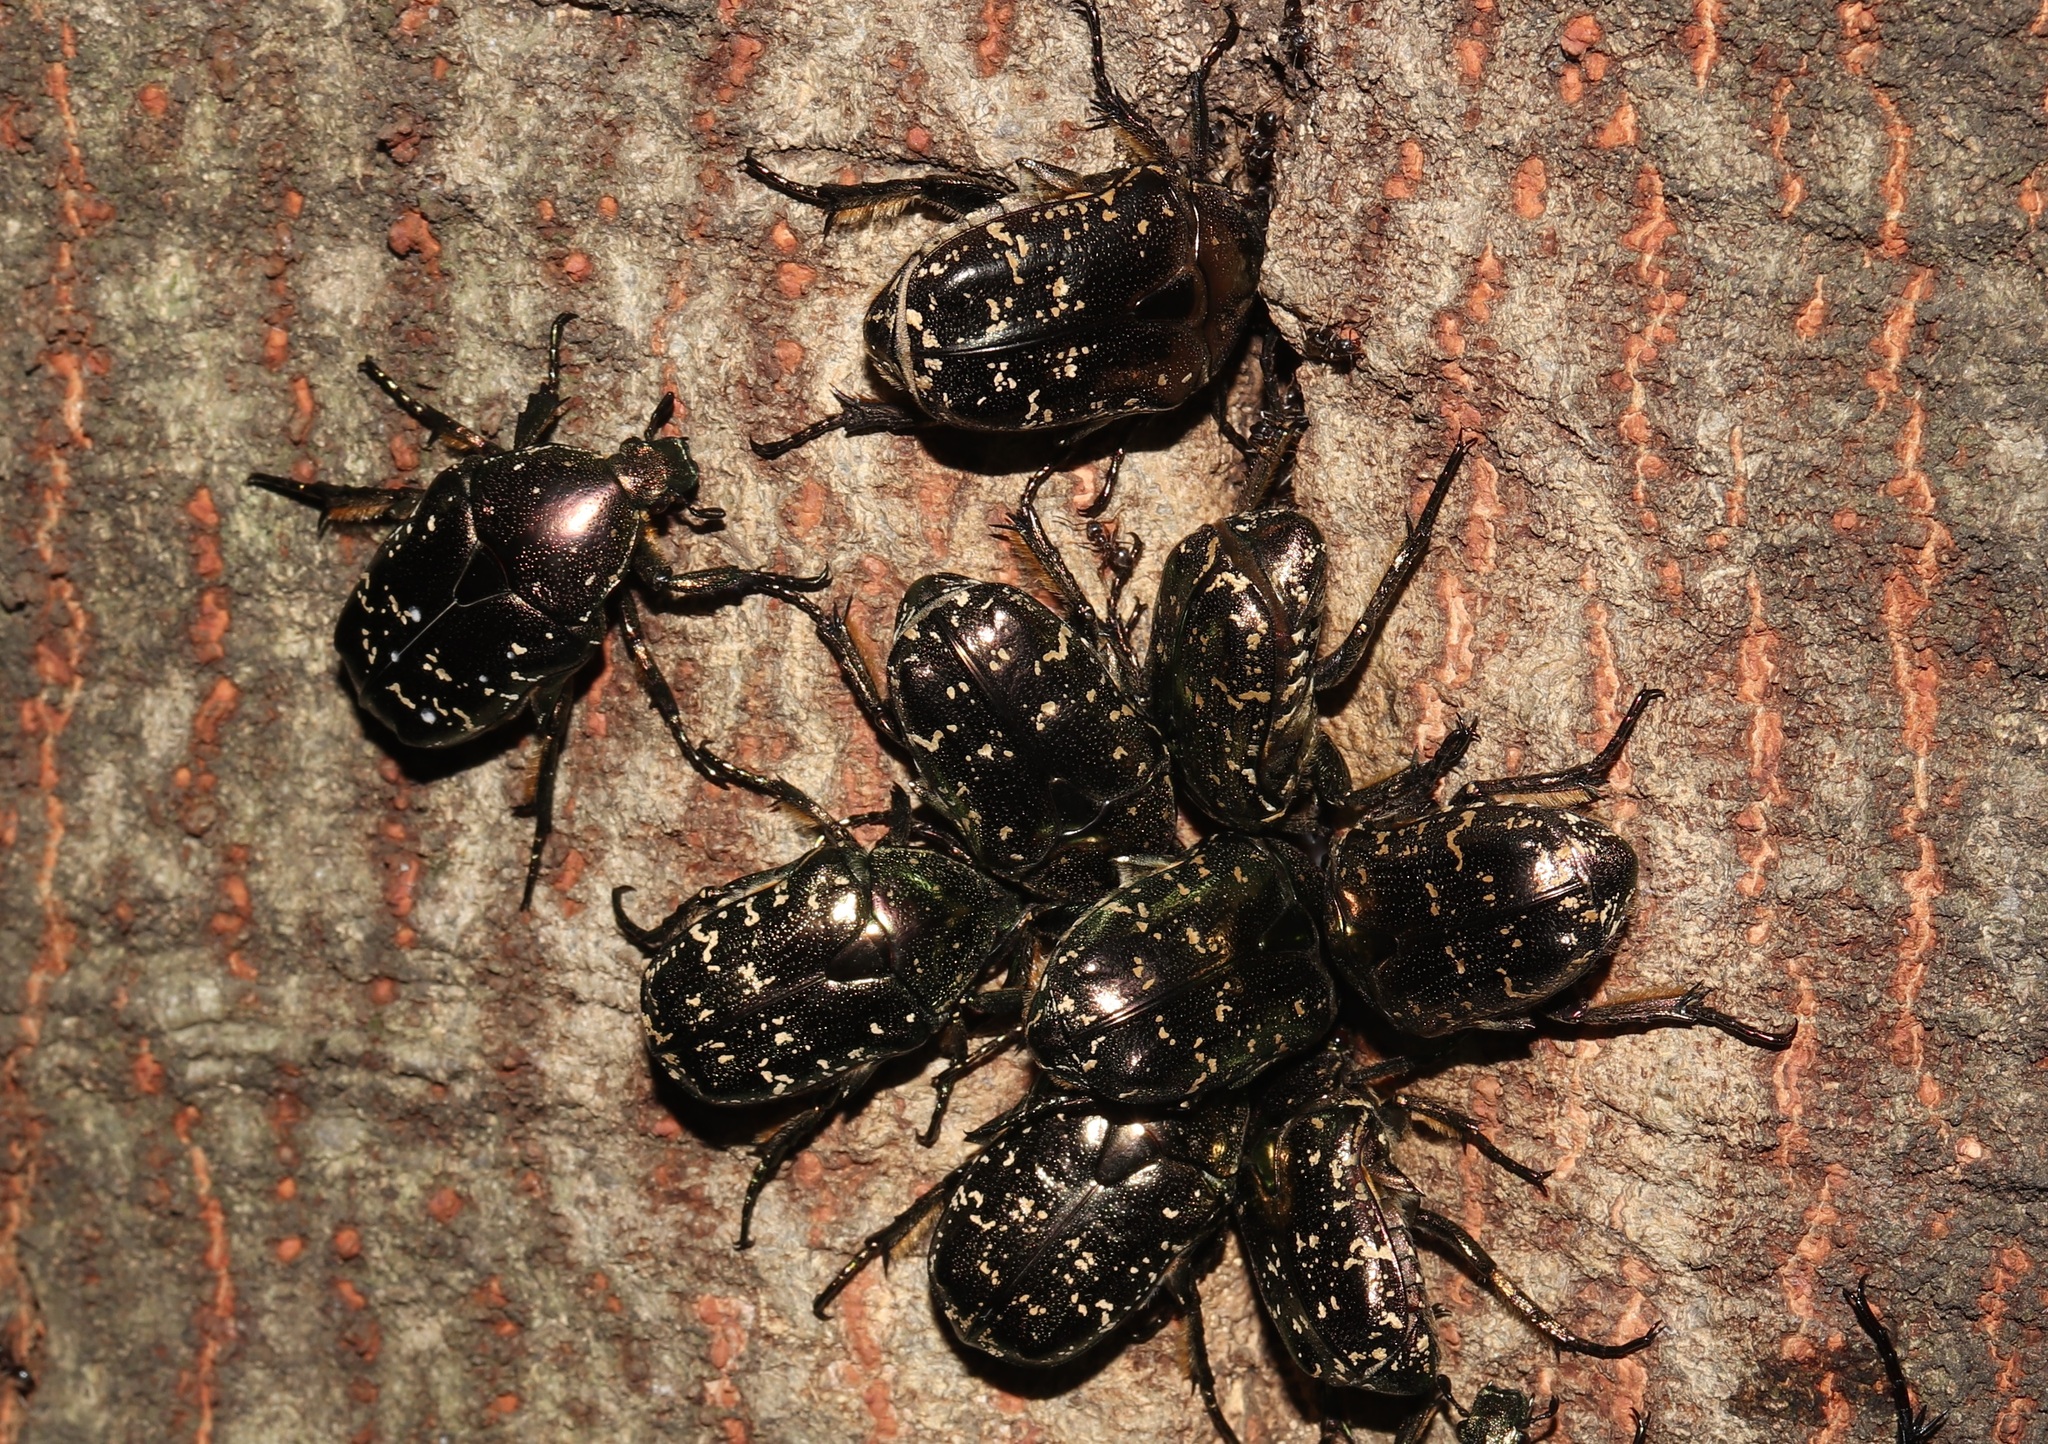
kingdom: Animalia
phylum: Arthropoda
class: Insecta
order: Coleoptera
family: Scarabaeidae
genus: Protaetia
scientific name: Protaetia orientalis
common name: Oriental flower beetle
